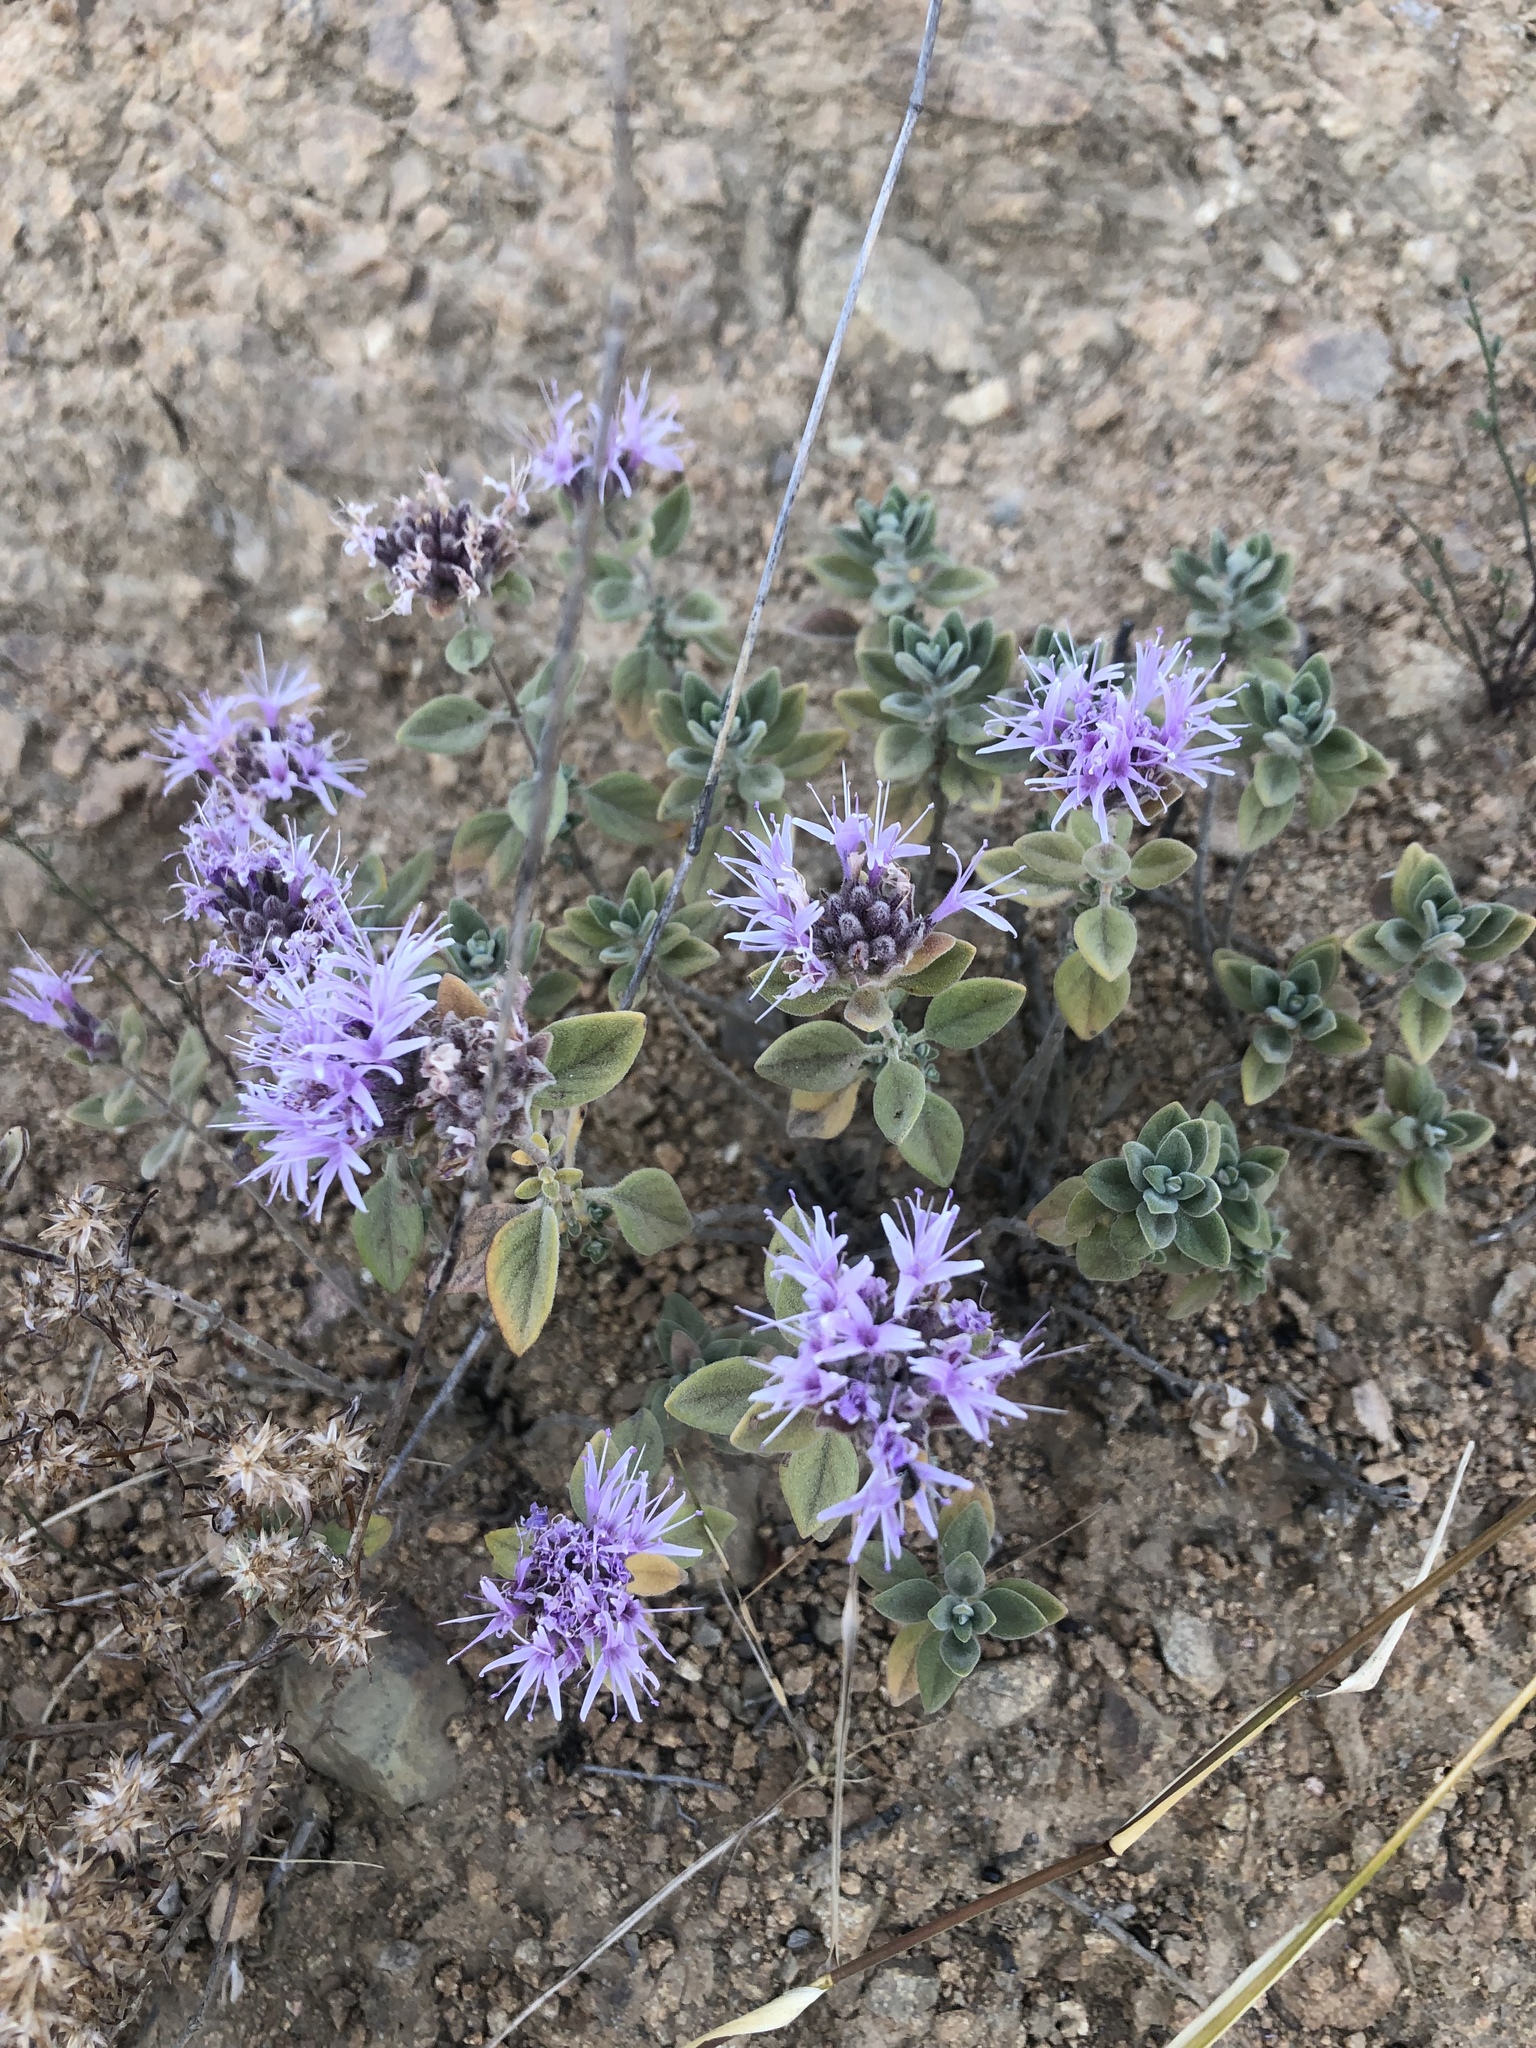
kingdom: Plantae
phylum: Tracheophyta
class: Magnoliopsida
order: Lamiales
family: Lamiaceae
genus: Monardella
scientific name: Monardella odoratissima
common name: Pacific monardella
